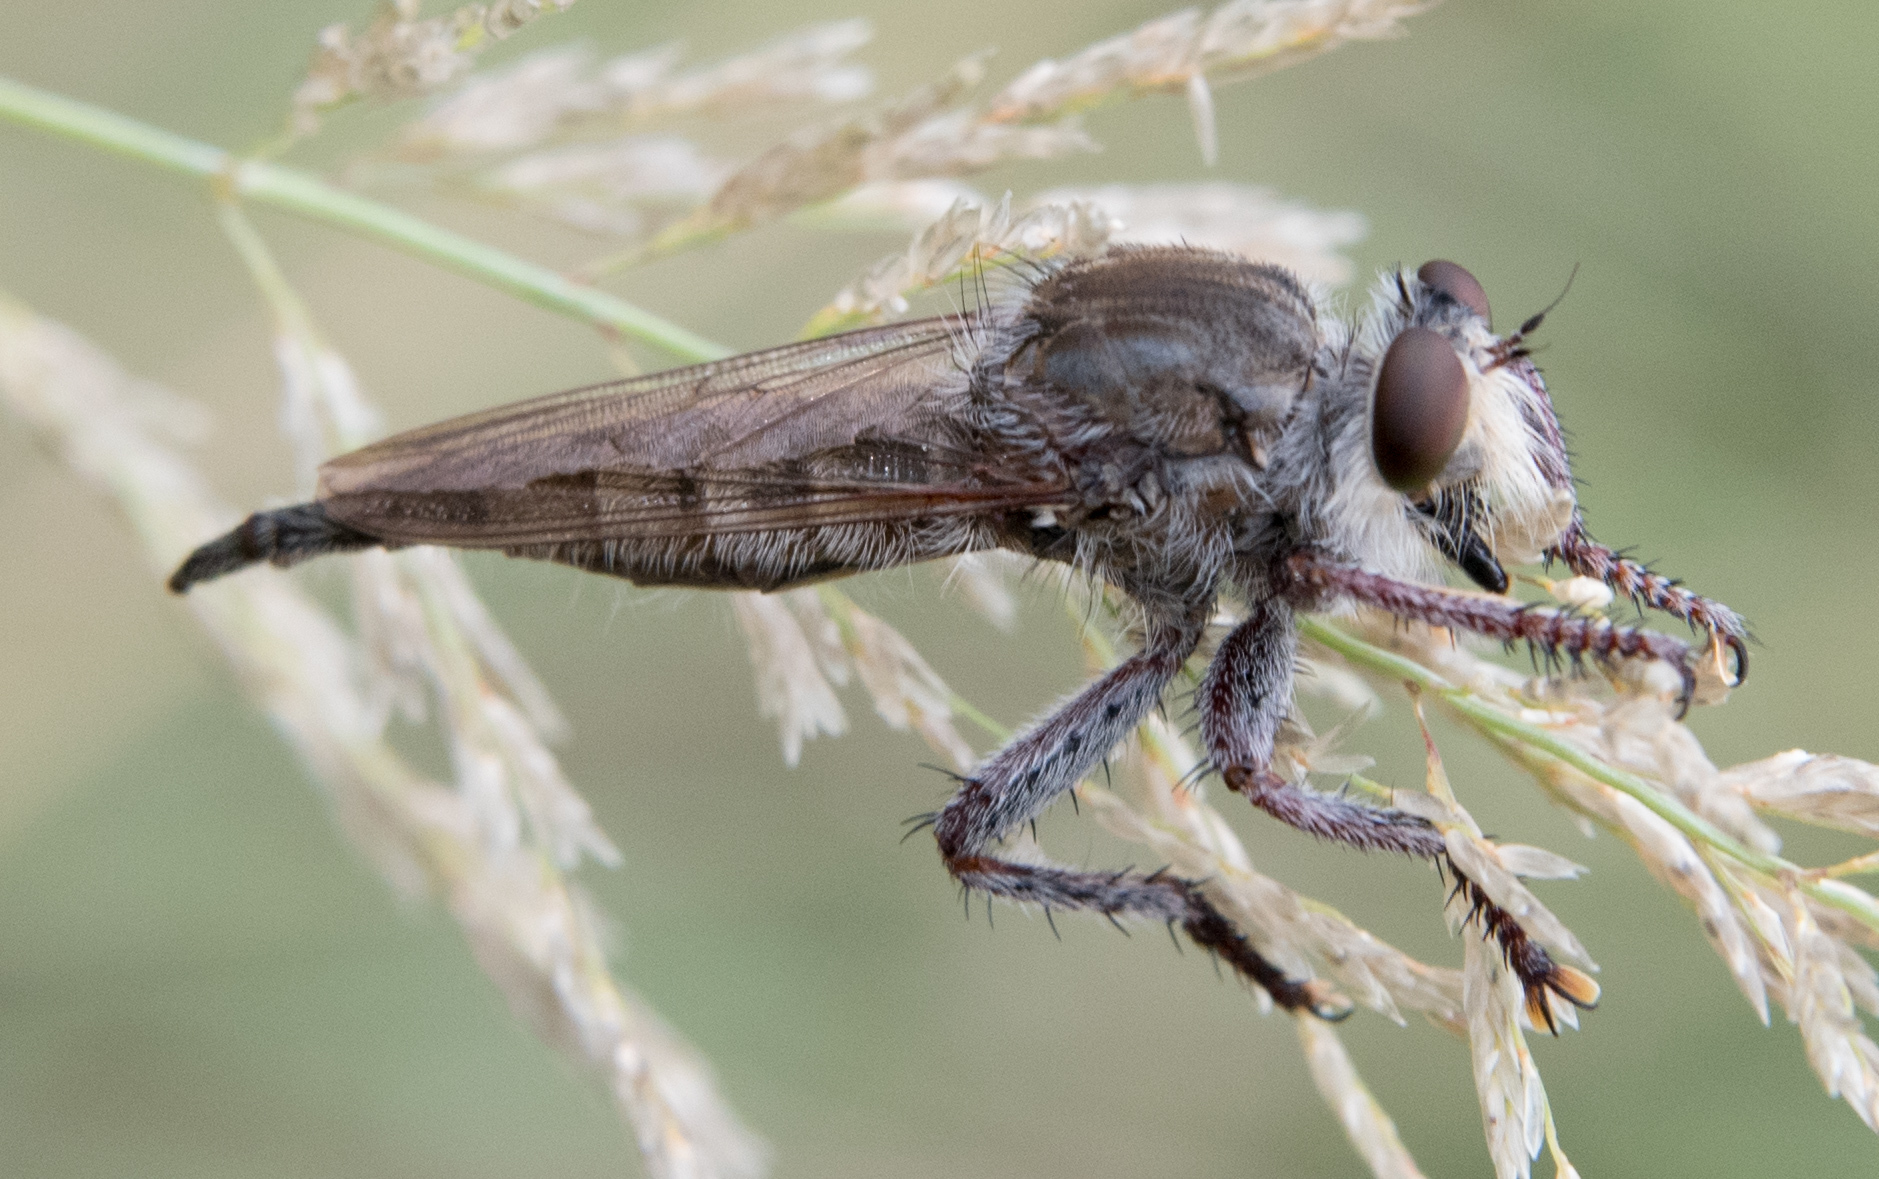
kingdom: Animalia
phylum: Arthropoda
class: Insecta
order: Diptera
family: Asilidae
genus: Promachus
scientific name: Promachus truquii
